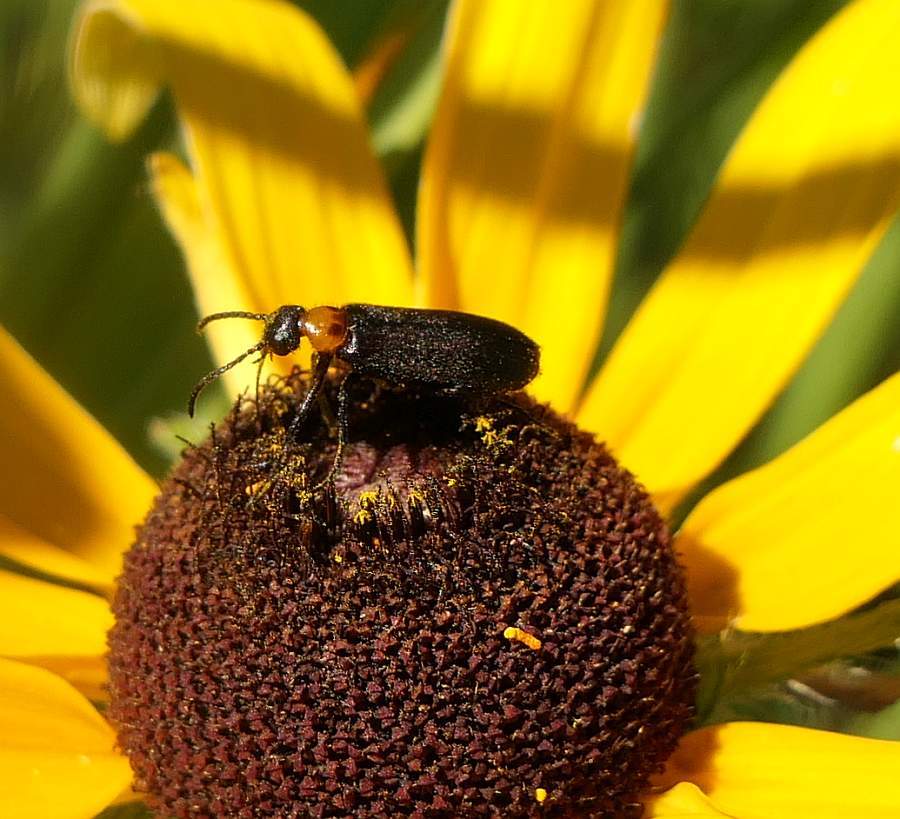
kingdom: Animalia
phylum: Arthropoda
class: Insecta
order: Coleoptera
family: Meloidae
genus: Nemognatha
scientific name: Nemognatha nemorensis
